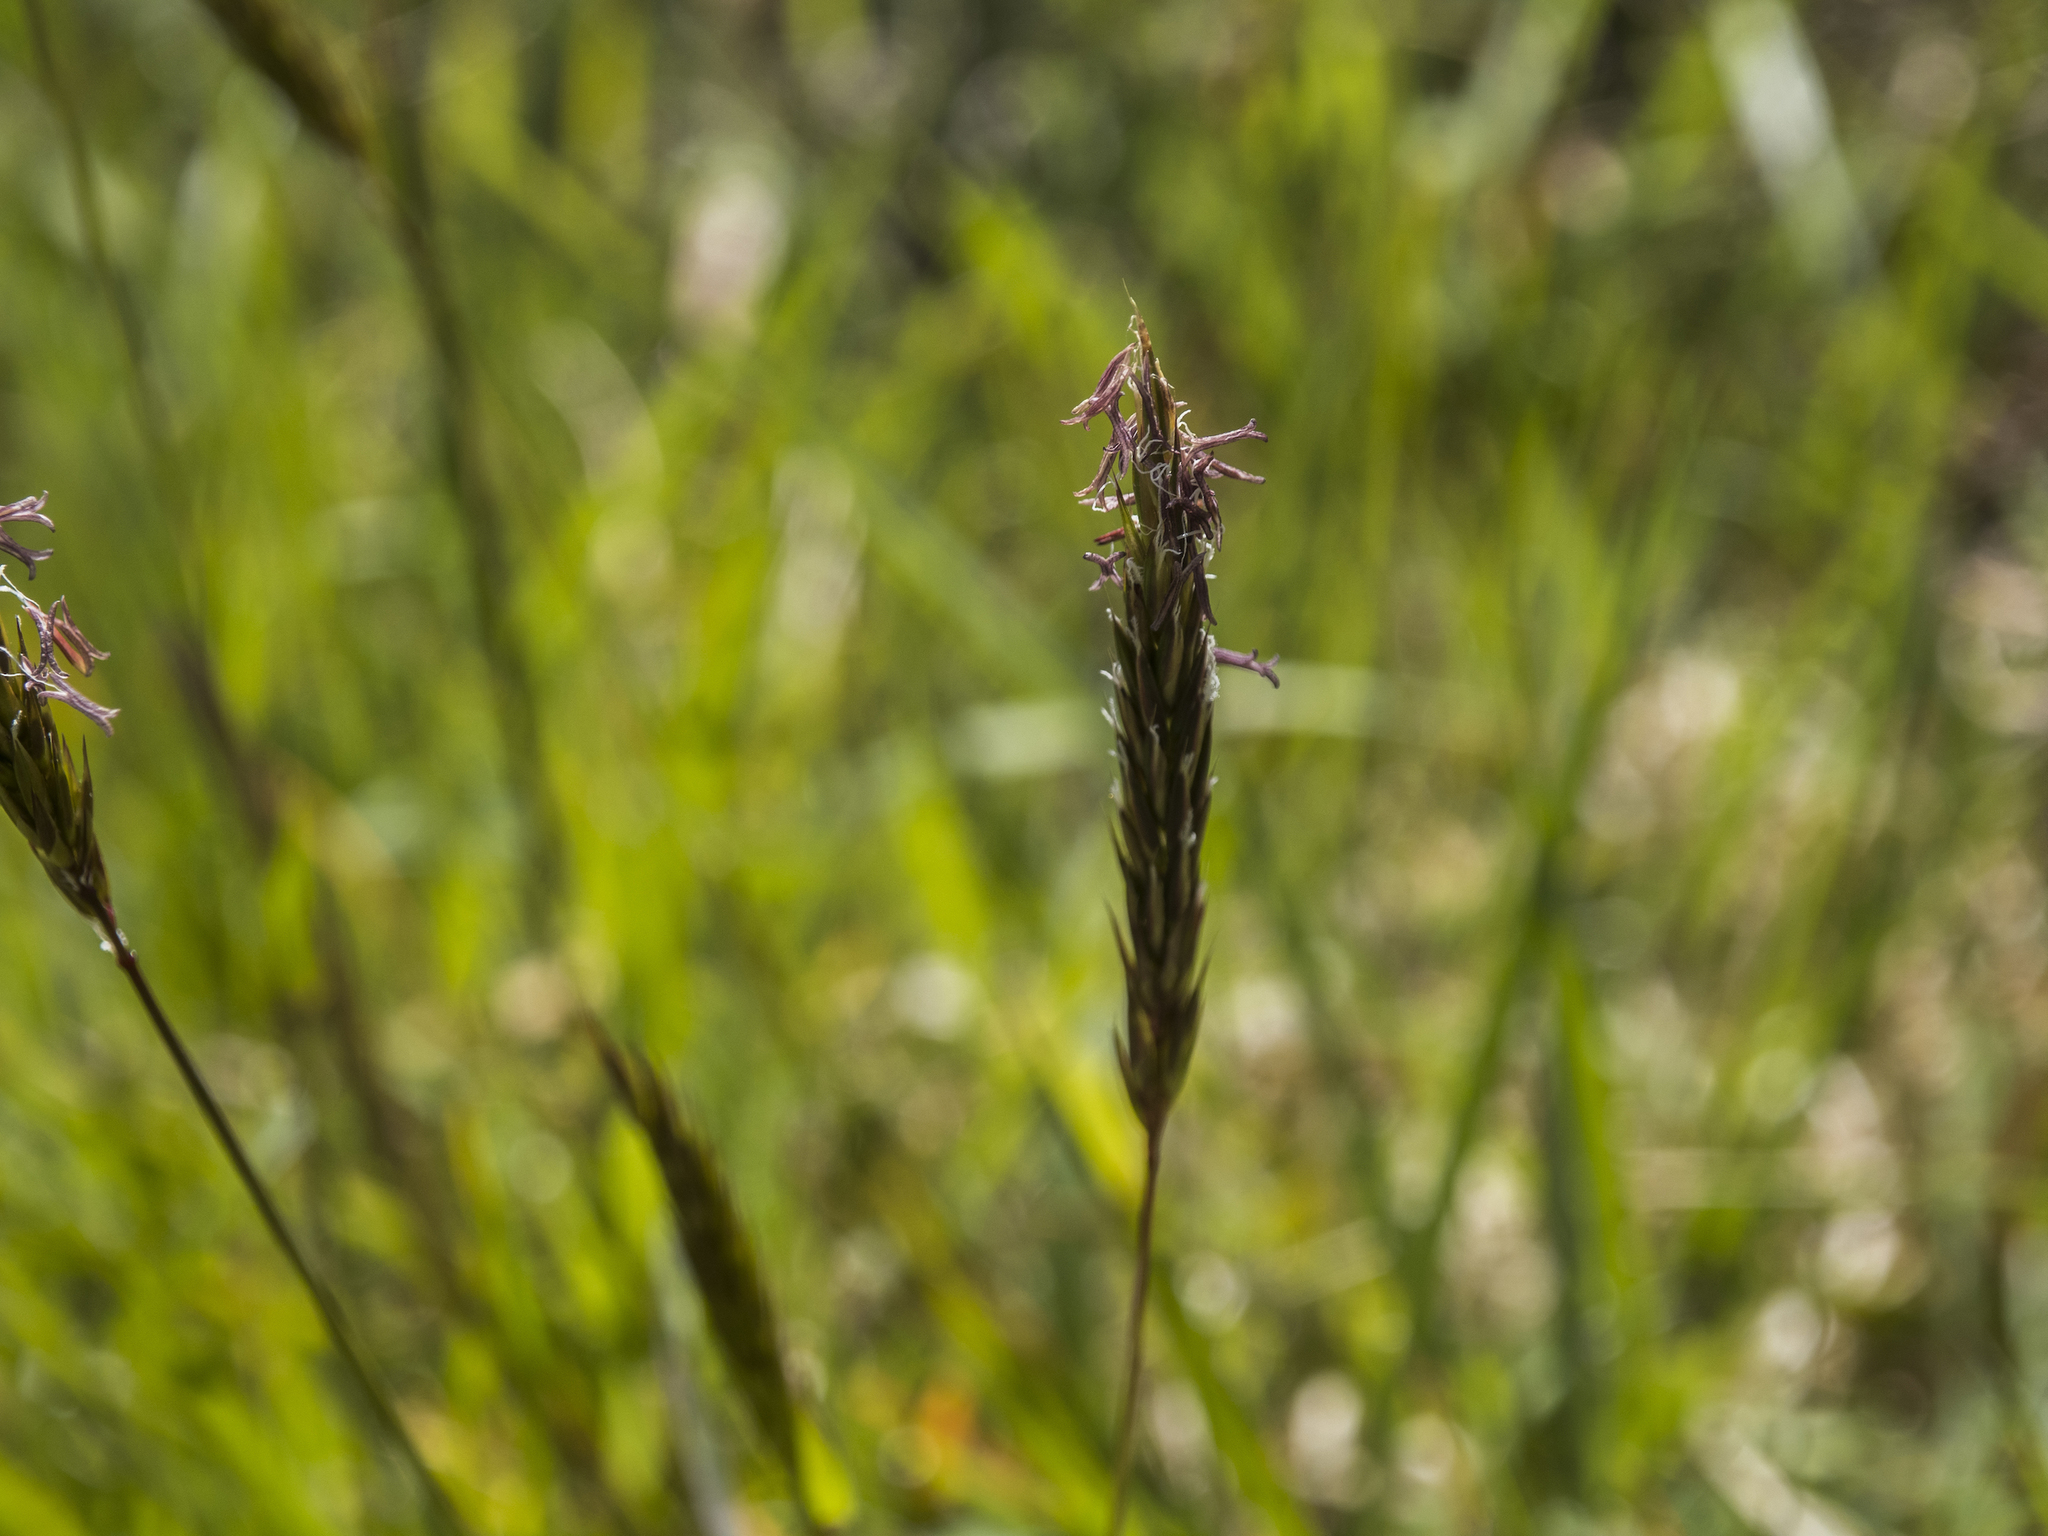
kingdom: Plantae
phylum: Tracheophyta
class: Liliopsida
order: Poales
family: Poaceae
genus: Anthoxanthum
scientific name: Anthoxanthum odoratum
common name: Sweet vernalgrass
